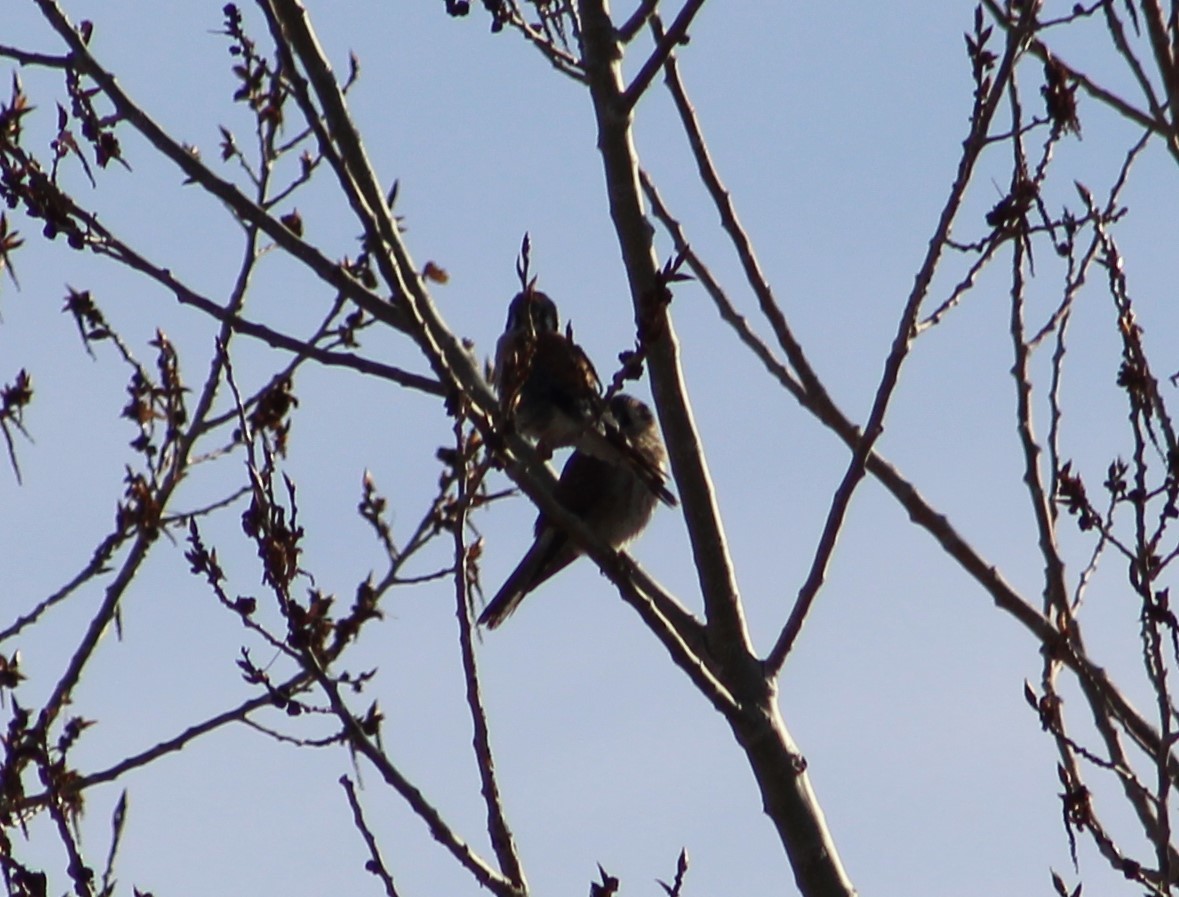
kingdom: Animalia
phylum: Chordata
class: Aves
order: Falconiformes
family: Falconidae
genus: Falco
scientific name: Falco sparverius
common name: American kestrel
